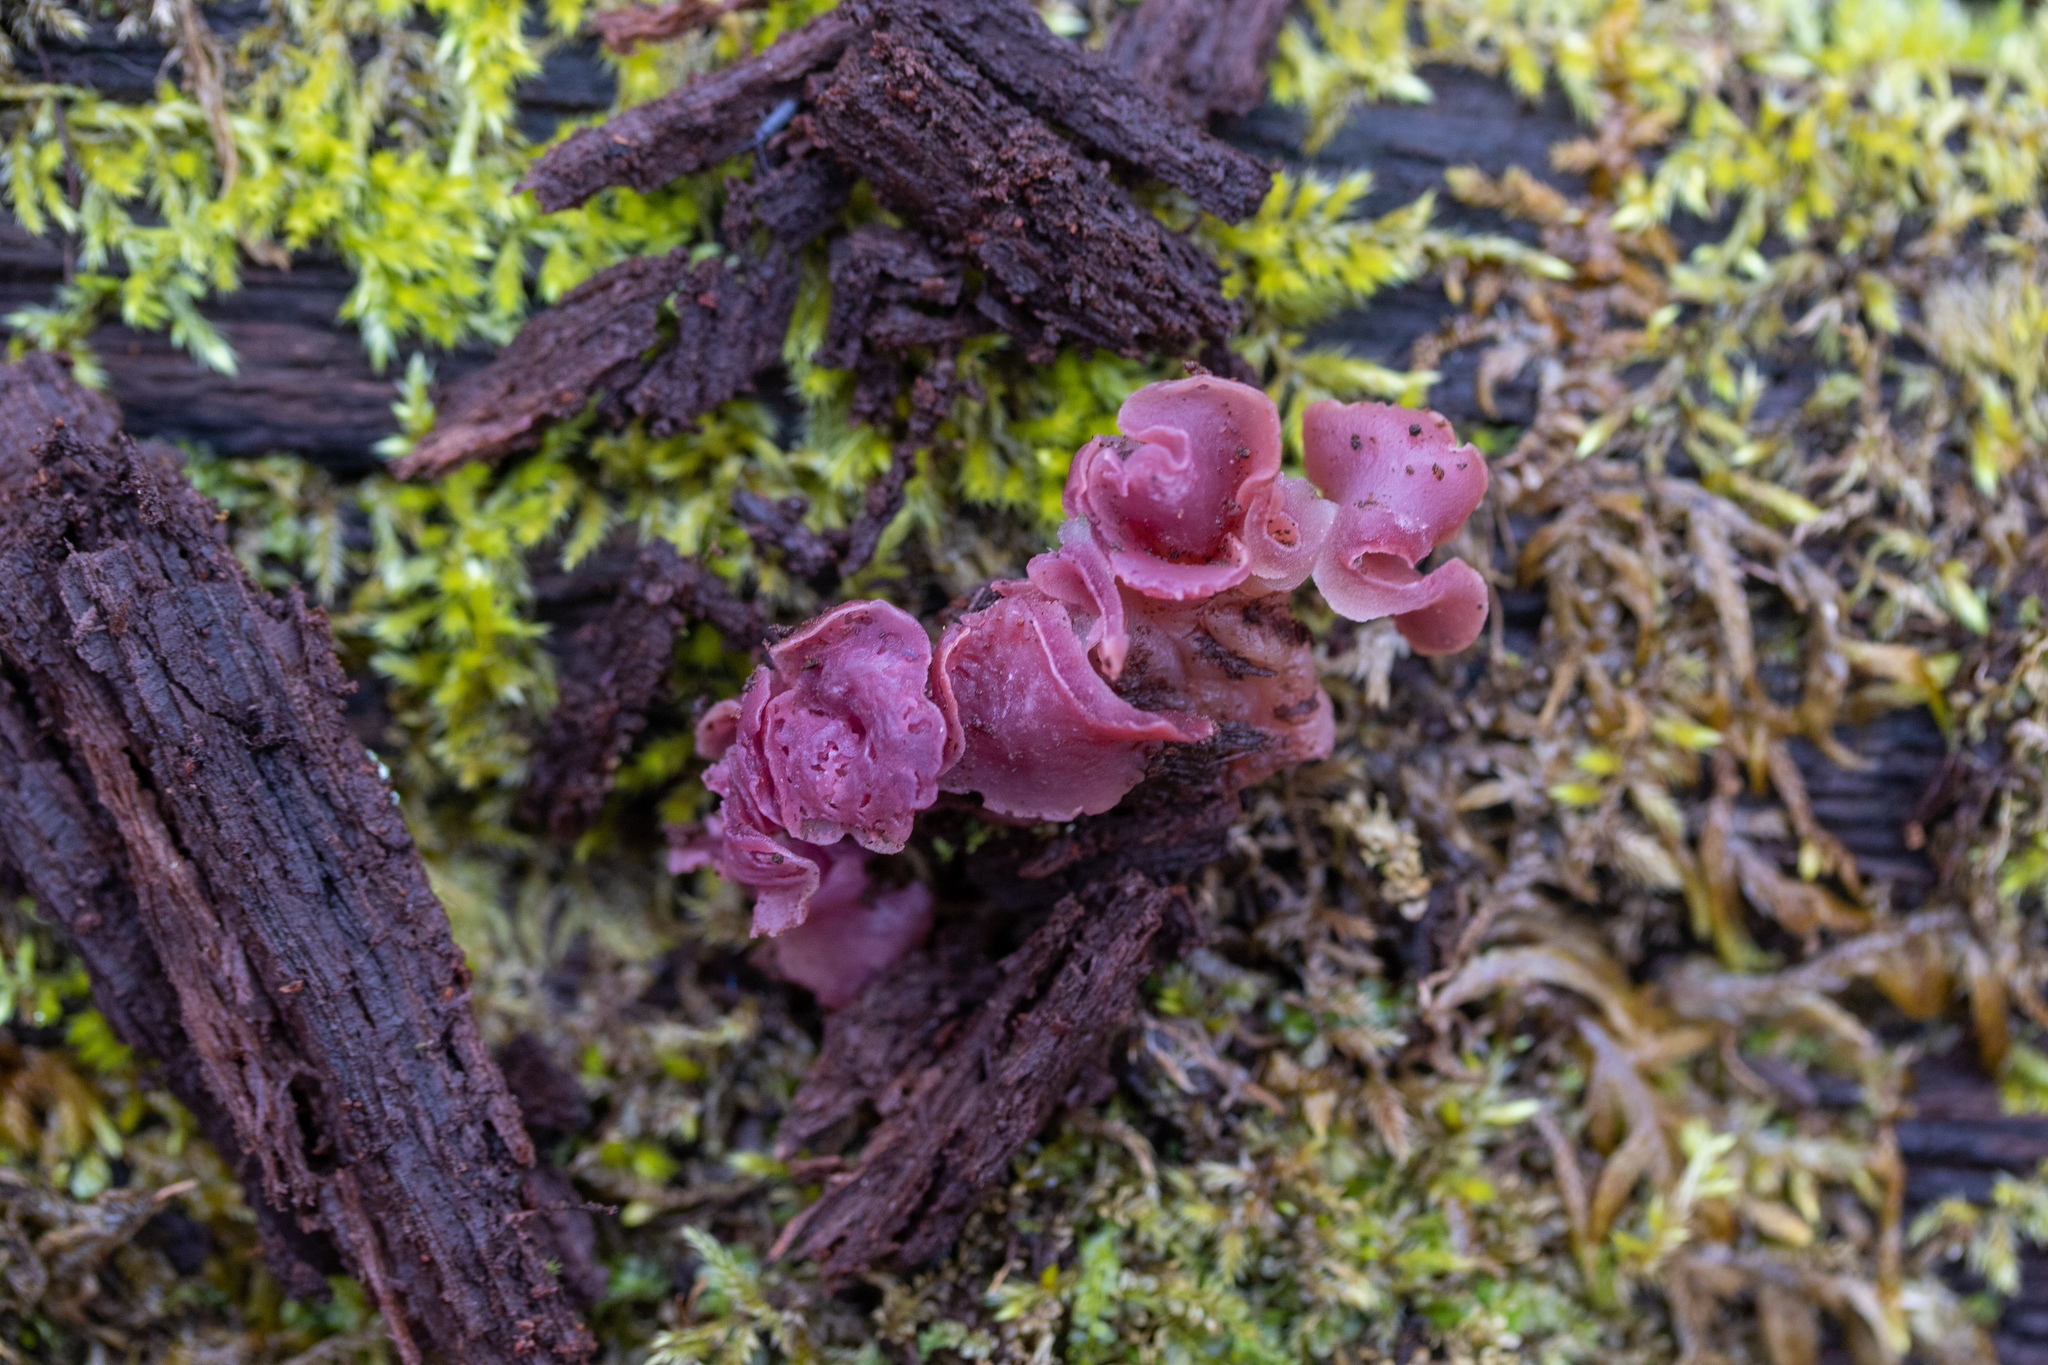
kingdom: Fungi
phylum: Ascomycota
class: Leotiomycetes
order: Helotiales
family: Gelatinodiscaceae
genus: Ascocoryne
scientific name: Ascocoryne sarcoides
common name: Purple jellydisc
